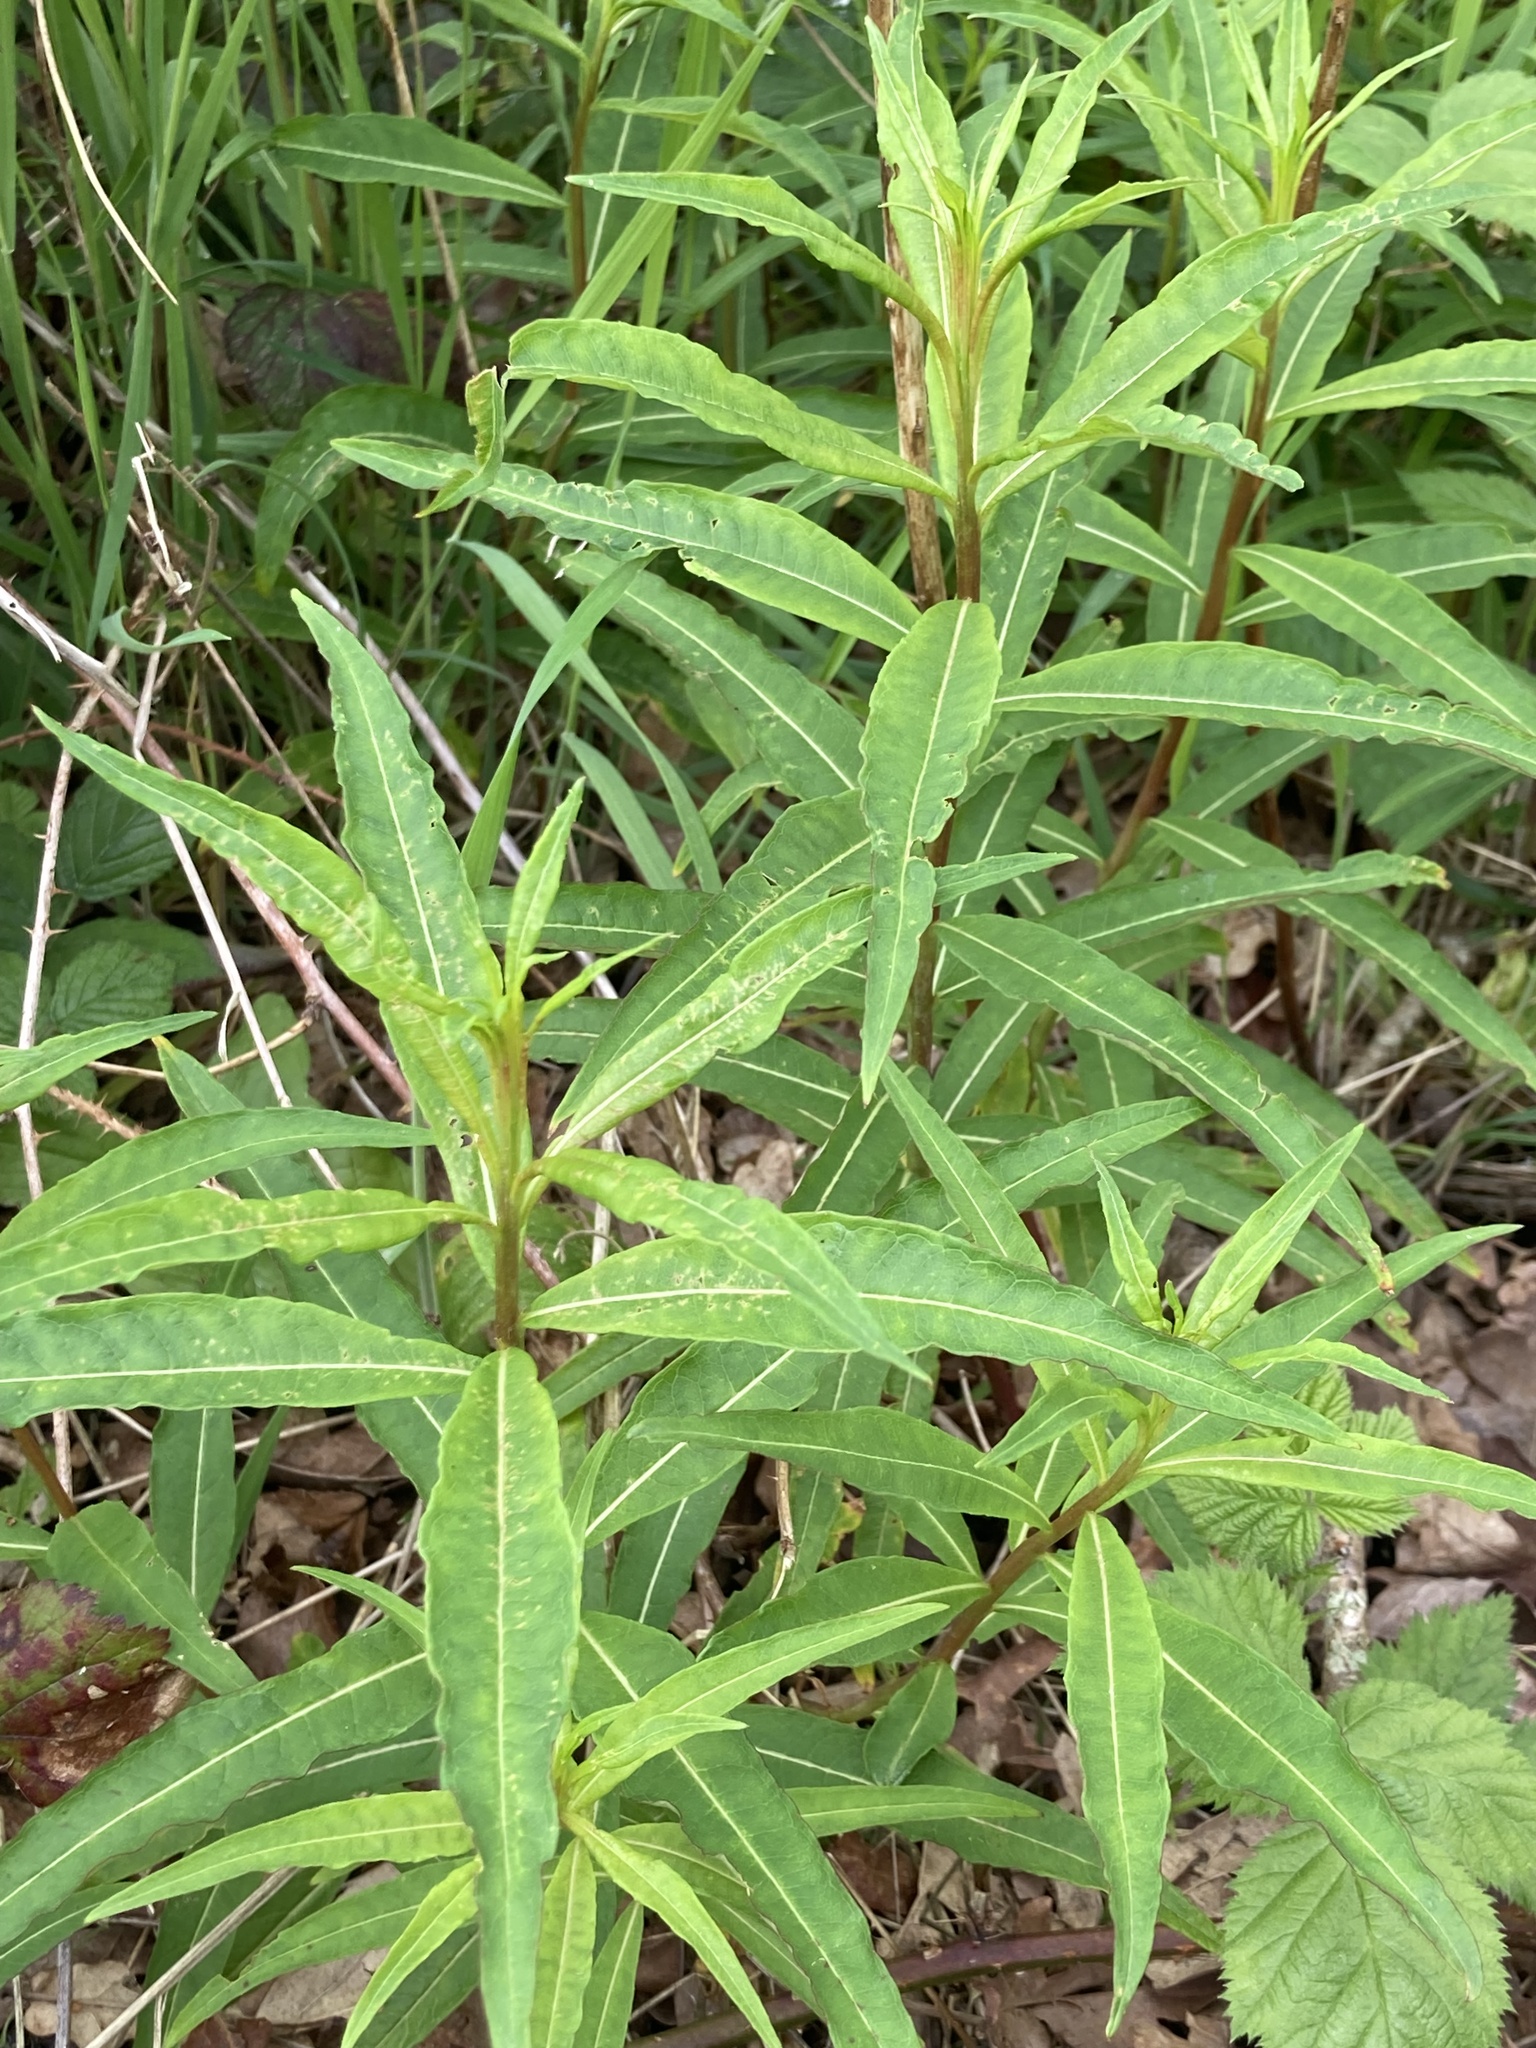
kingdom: Plantae
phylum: Tracheophyta
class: Magnoliopsida
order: Myrtales
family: Onagraceae
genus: Chamaenerion
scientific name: Chamaenerion angustifolium
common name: Fireweed
